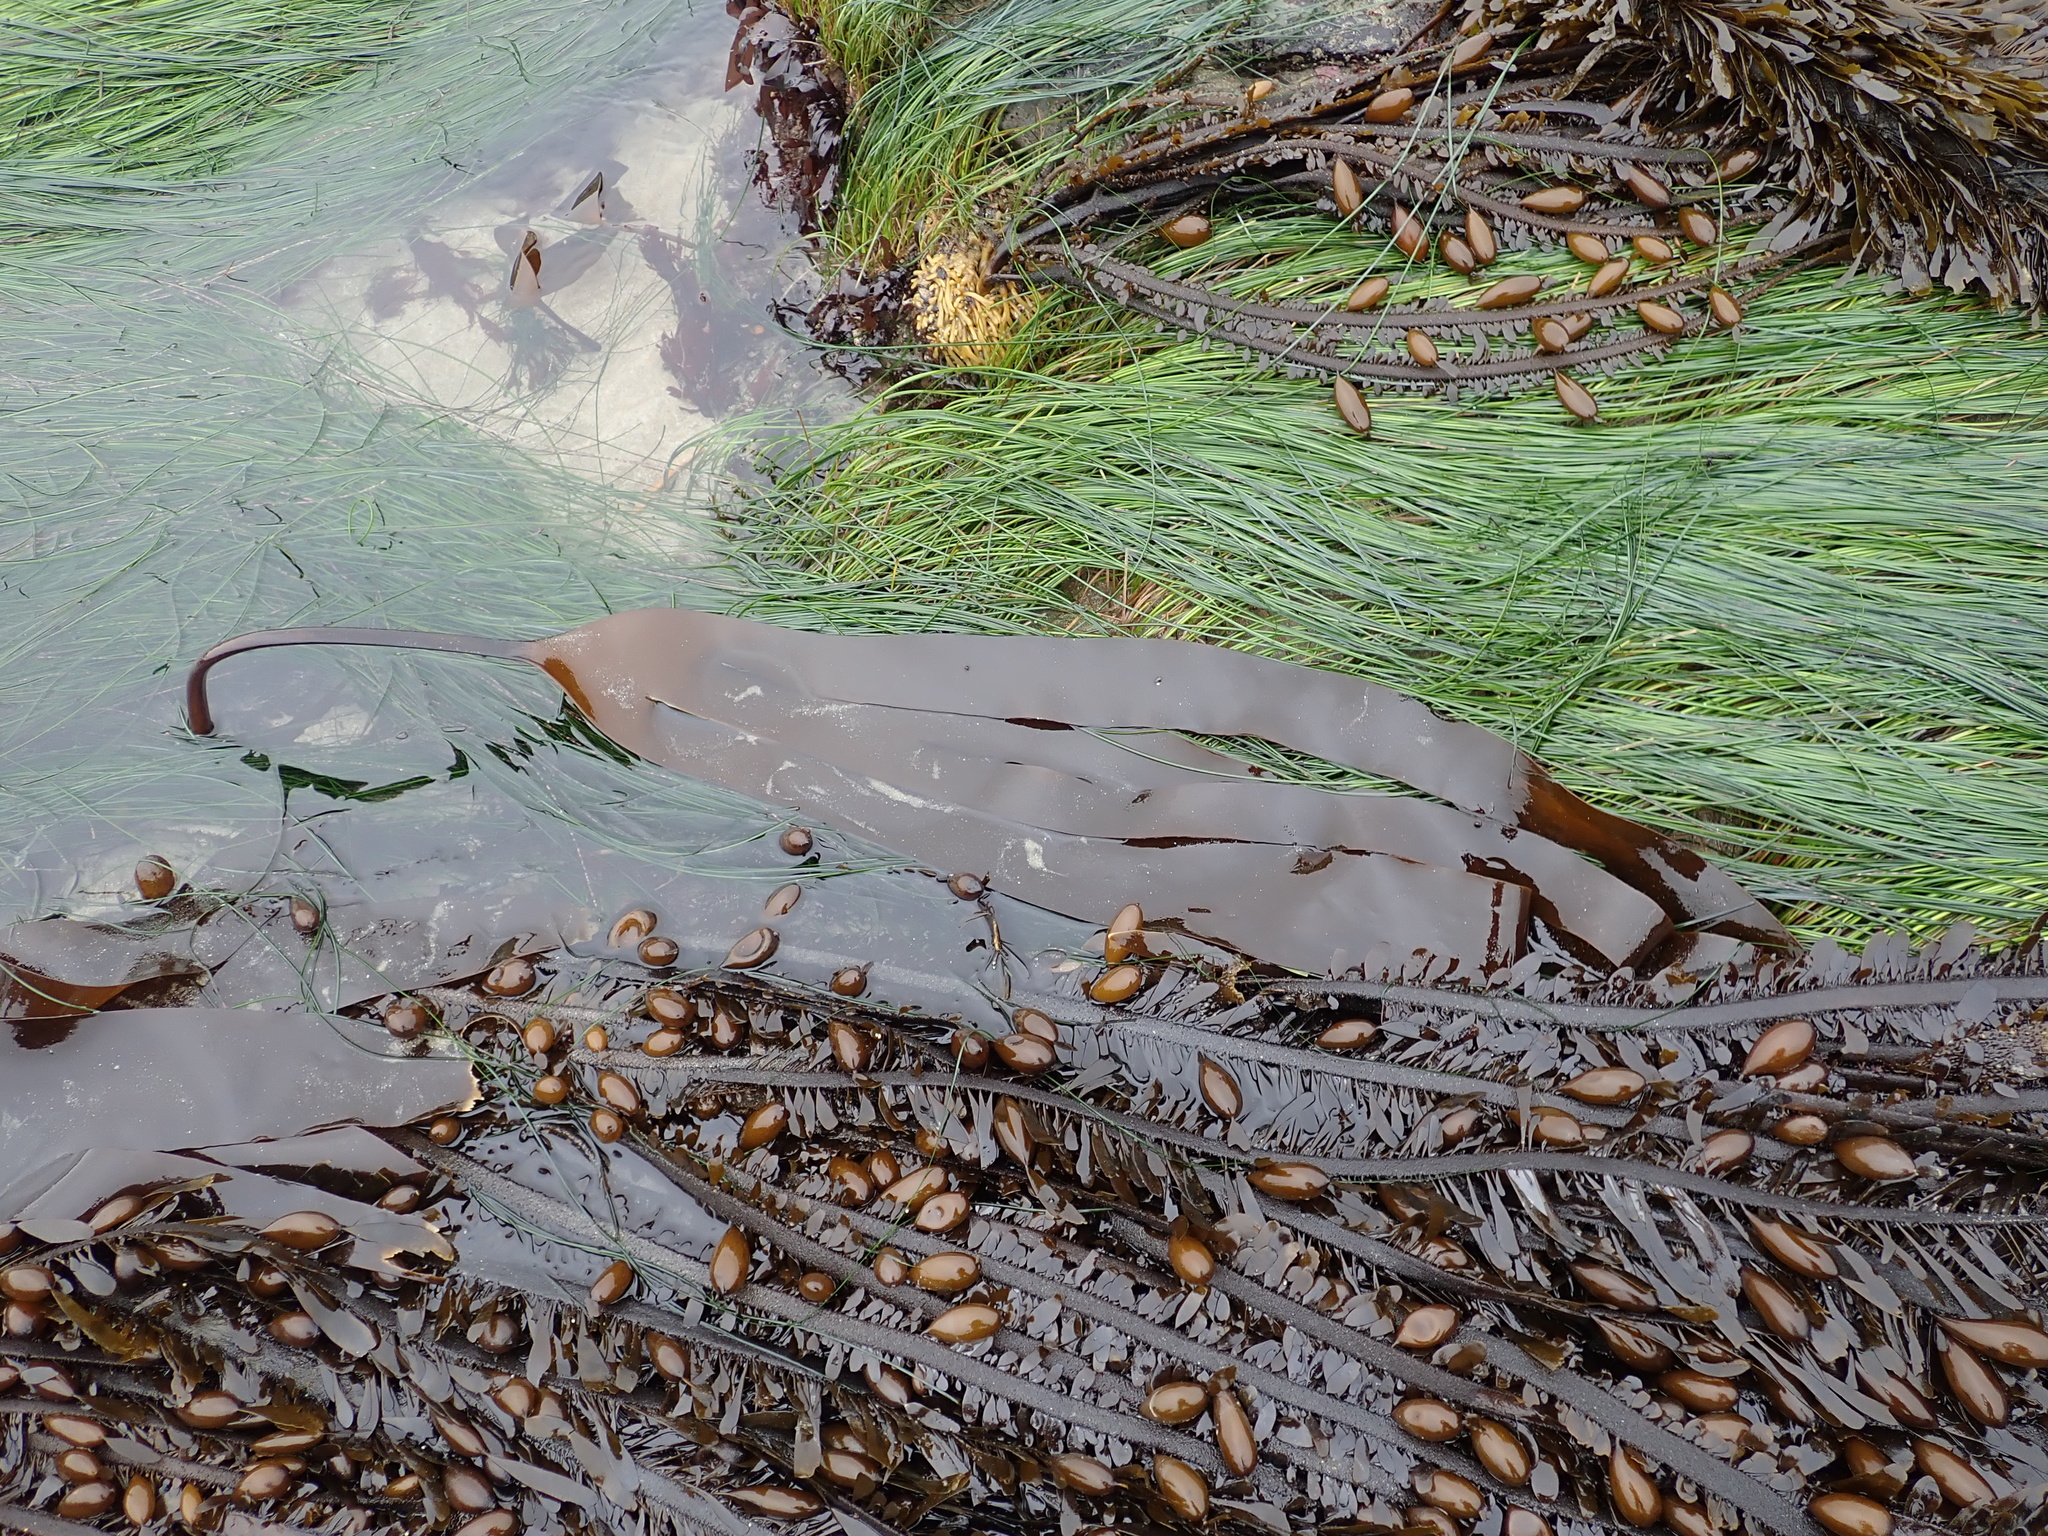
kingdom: Chromista
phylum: Ochrophyta
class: Phaeophyceae
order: Laminariales
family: Laminariaceae
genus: Laminaria
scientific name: Laminaria setchellii
